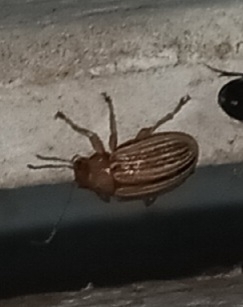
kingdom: Animalia
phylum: Arthropoda
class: Insecta
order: Coleoptera
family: Chrysomelidae
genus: Colaspis
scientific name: Colaspis brunnea
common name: Grape colaspis
